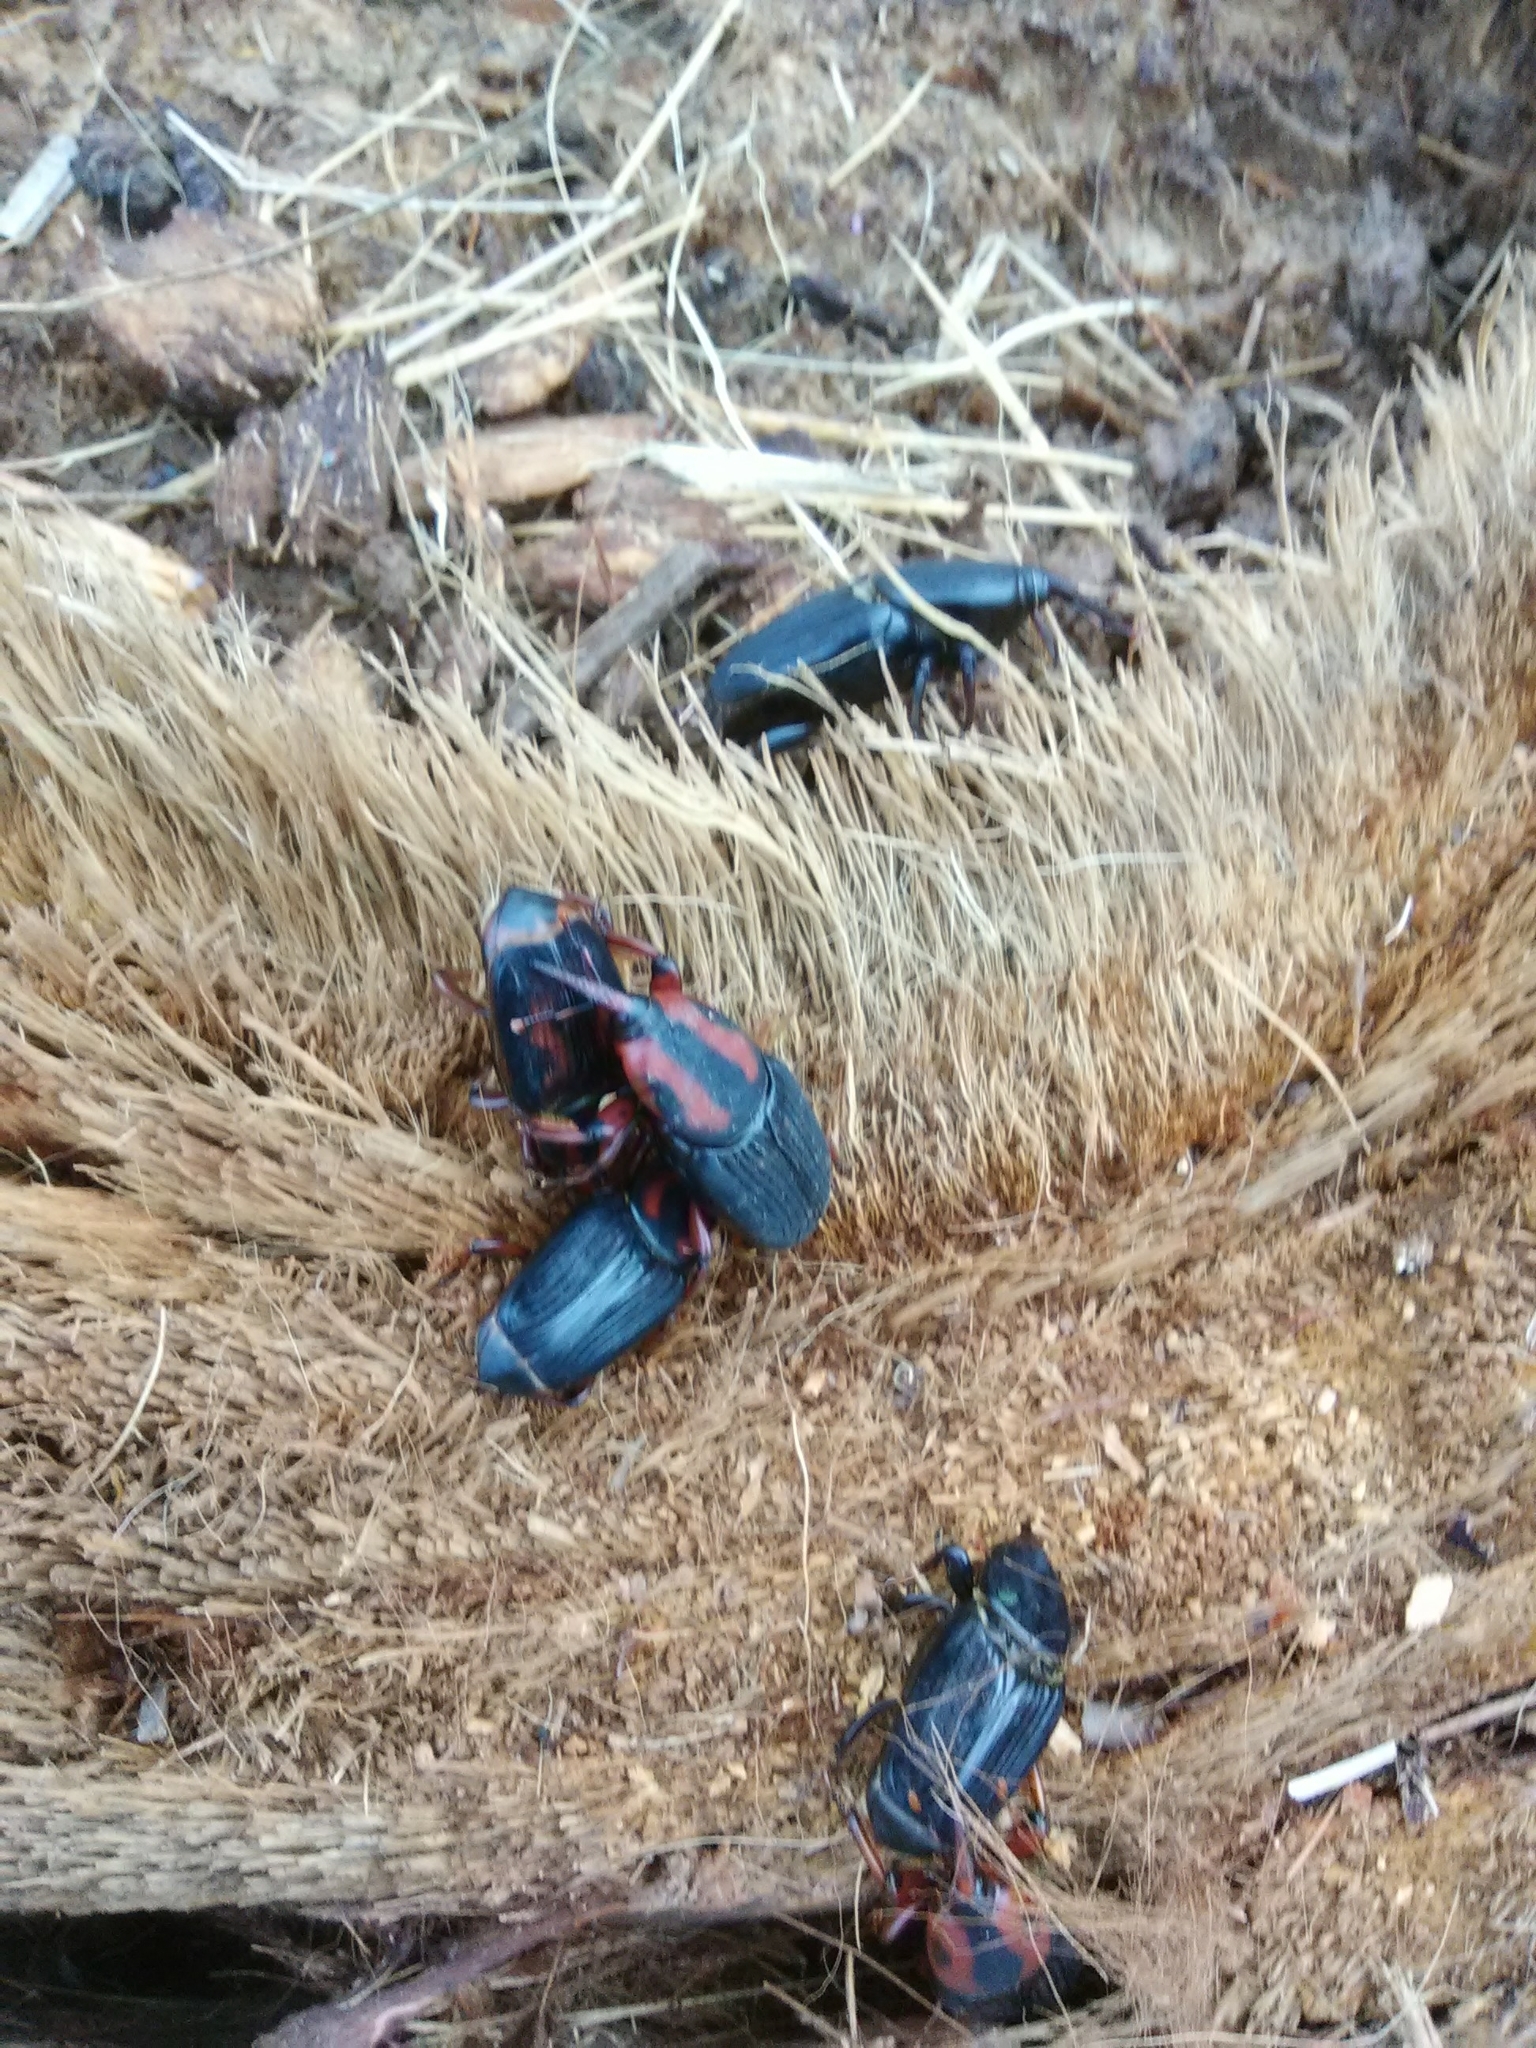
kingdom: Animalia
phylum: Arthropoda
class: Insecta
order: Coleoptera
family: Dryophthoridae
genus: Rhynchophorus
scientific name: Rhynchophorus cruentatus
